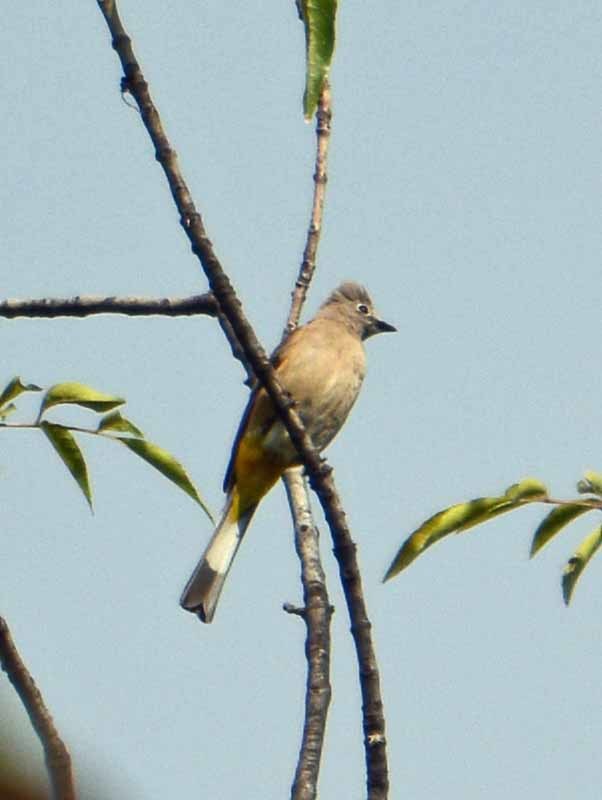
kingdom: Animalia
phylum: Chordata
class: Aves
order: Passeriformes
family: Ptilogonatidae
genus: Ptilogonys
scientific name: Ptilogonys cinereus
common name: Gray silky-flycatcher
